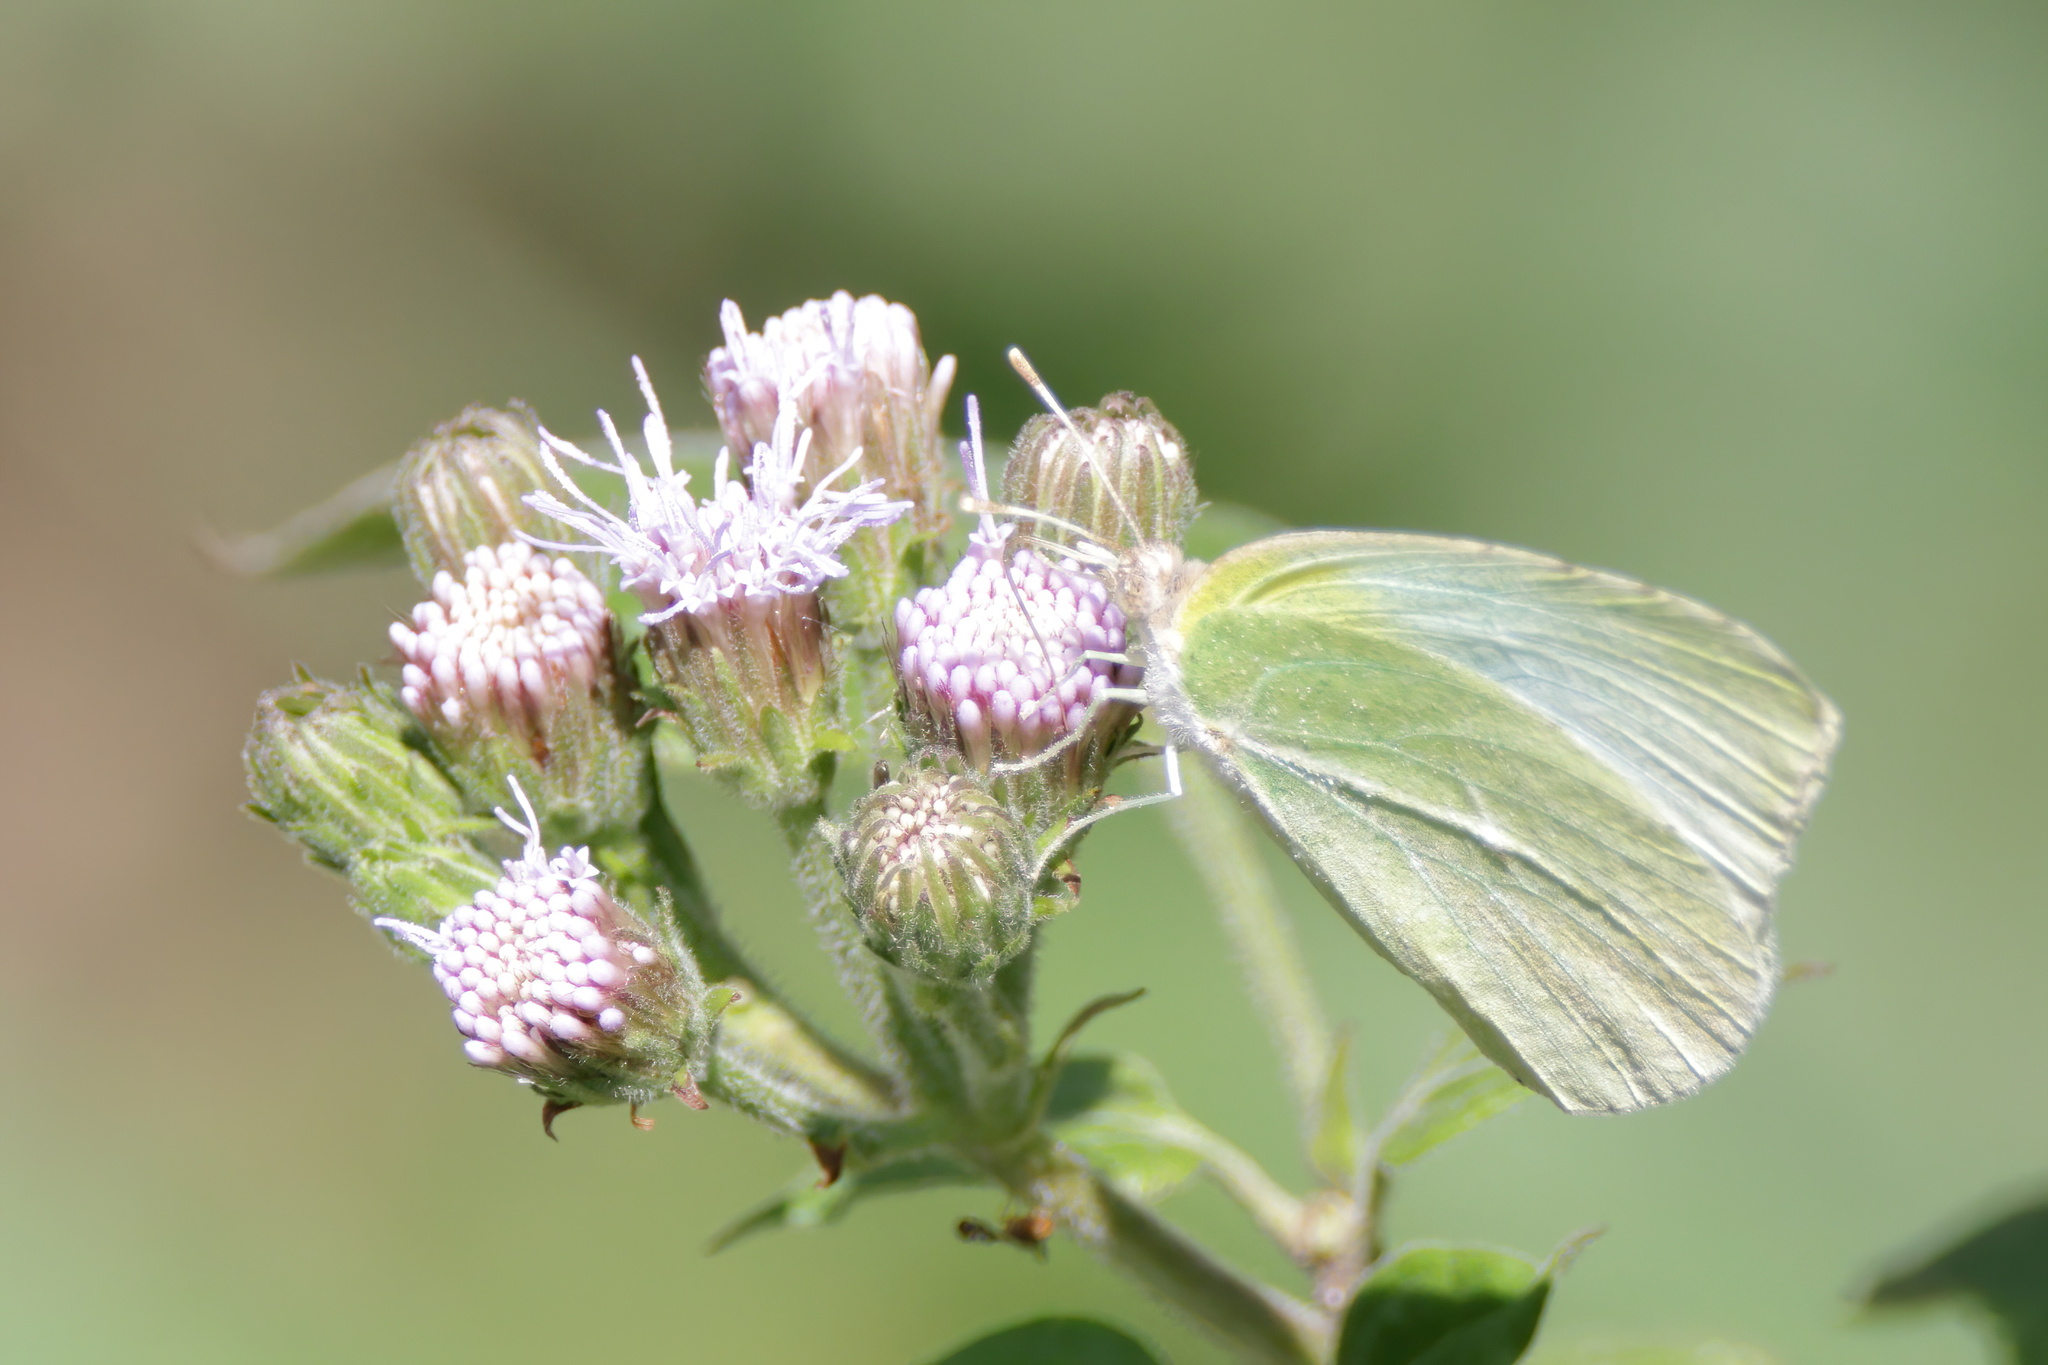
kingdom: Animalia
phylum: Arthropoda
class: Insecta
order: Lepidoptera
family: Pieridae
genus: Kricogonia
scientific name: Kricogonia lyside
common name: Guayacan sulphur,
